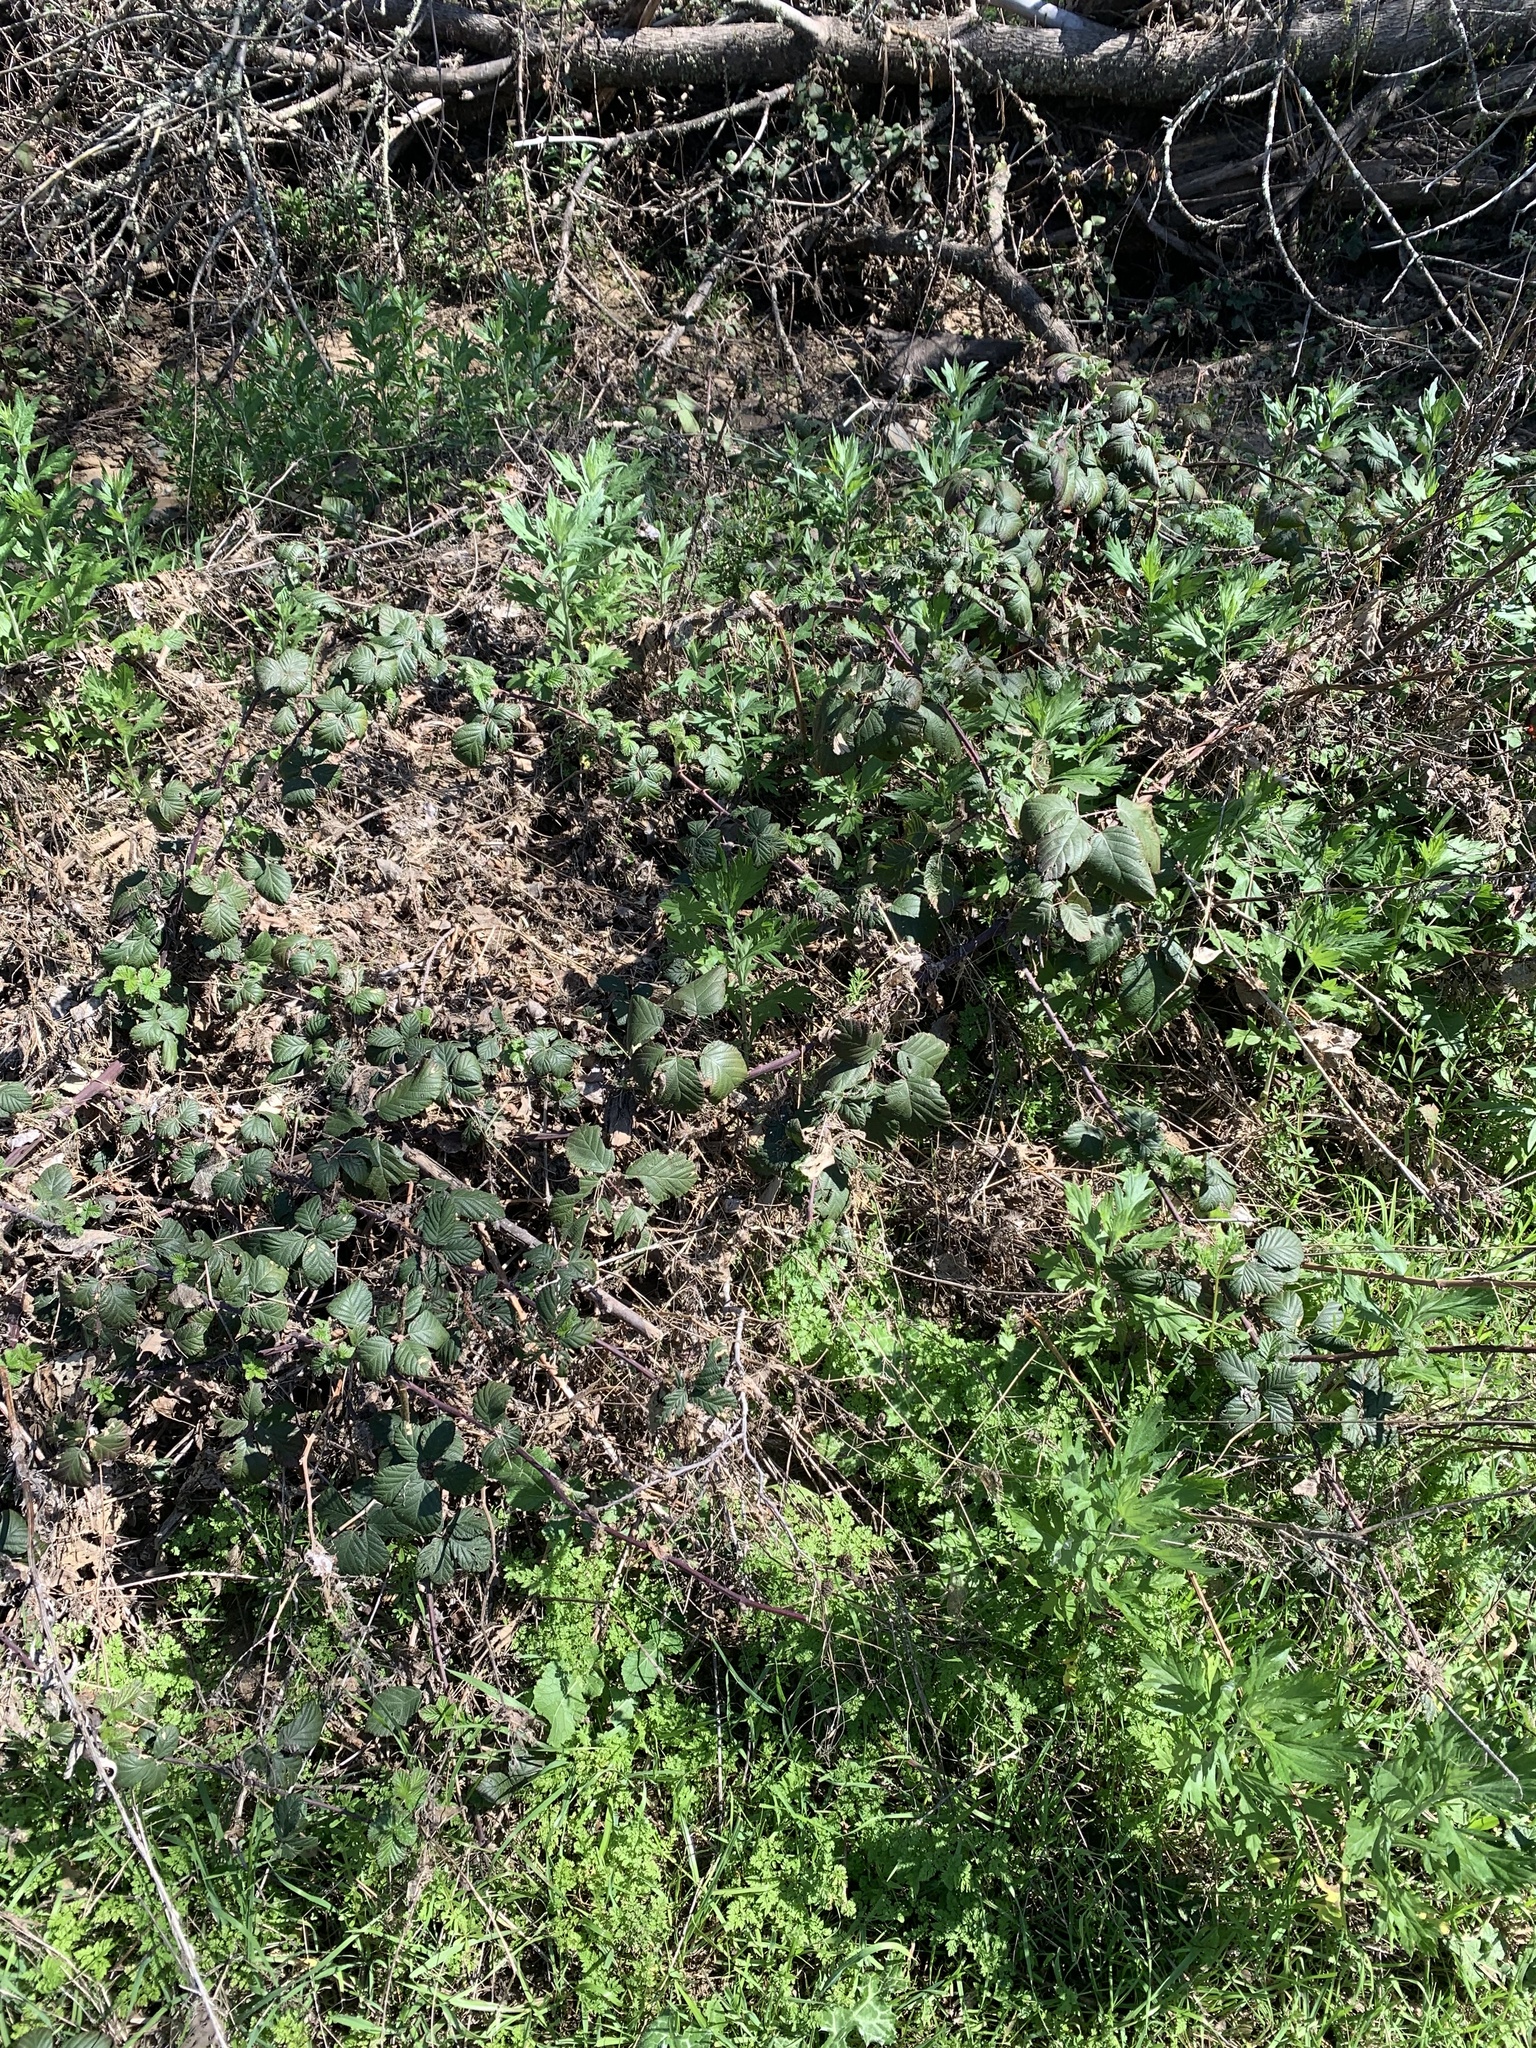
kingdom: Plantae
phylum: Tracheophyta
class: Magnoliopsida
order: Rosales
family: Rosaceae
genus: Rubus
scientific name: Rubus armeniacus
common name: Himalayan blackberry
